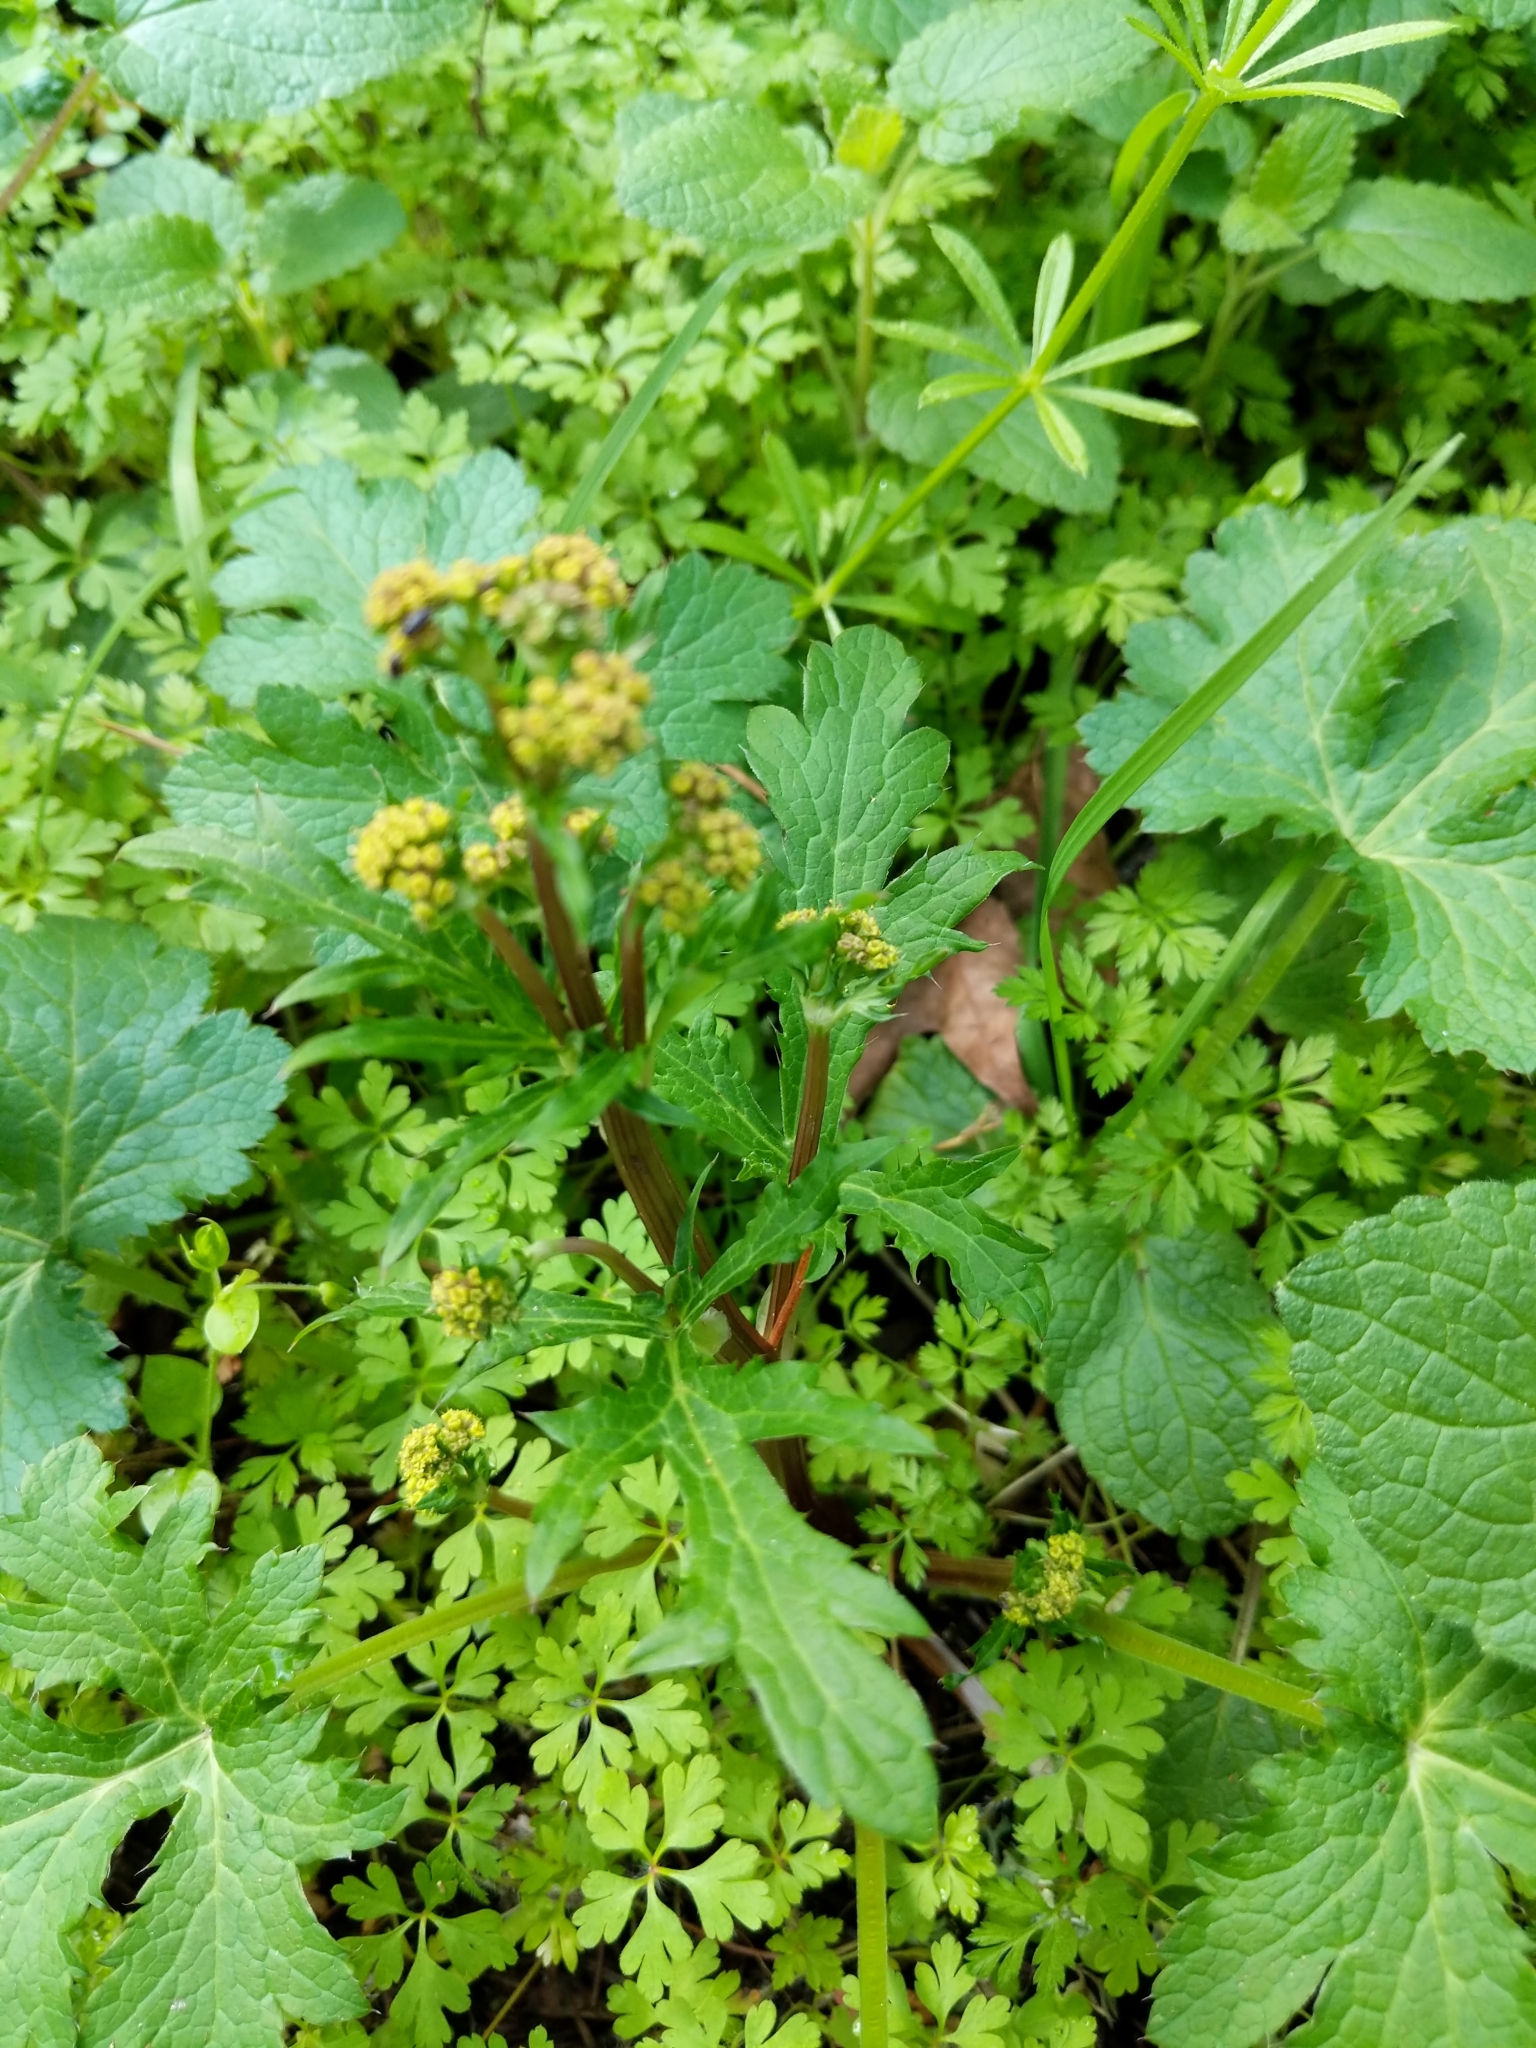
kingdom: Plantae
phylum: Tracheophyta
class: Magnoliopsida
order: Apiales
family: Apiaceae
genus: Sanicula
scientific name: Sanicula crassicaulis
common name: Western snakeroot
